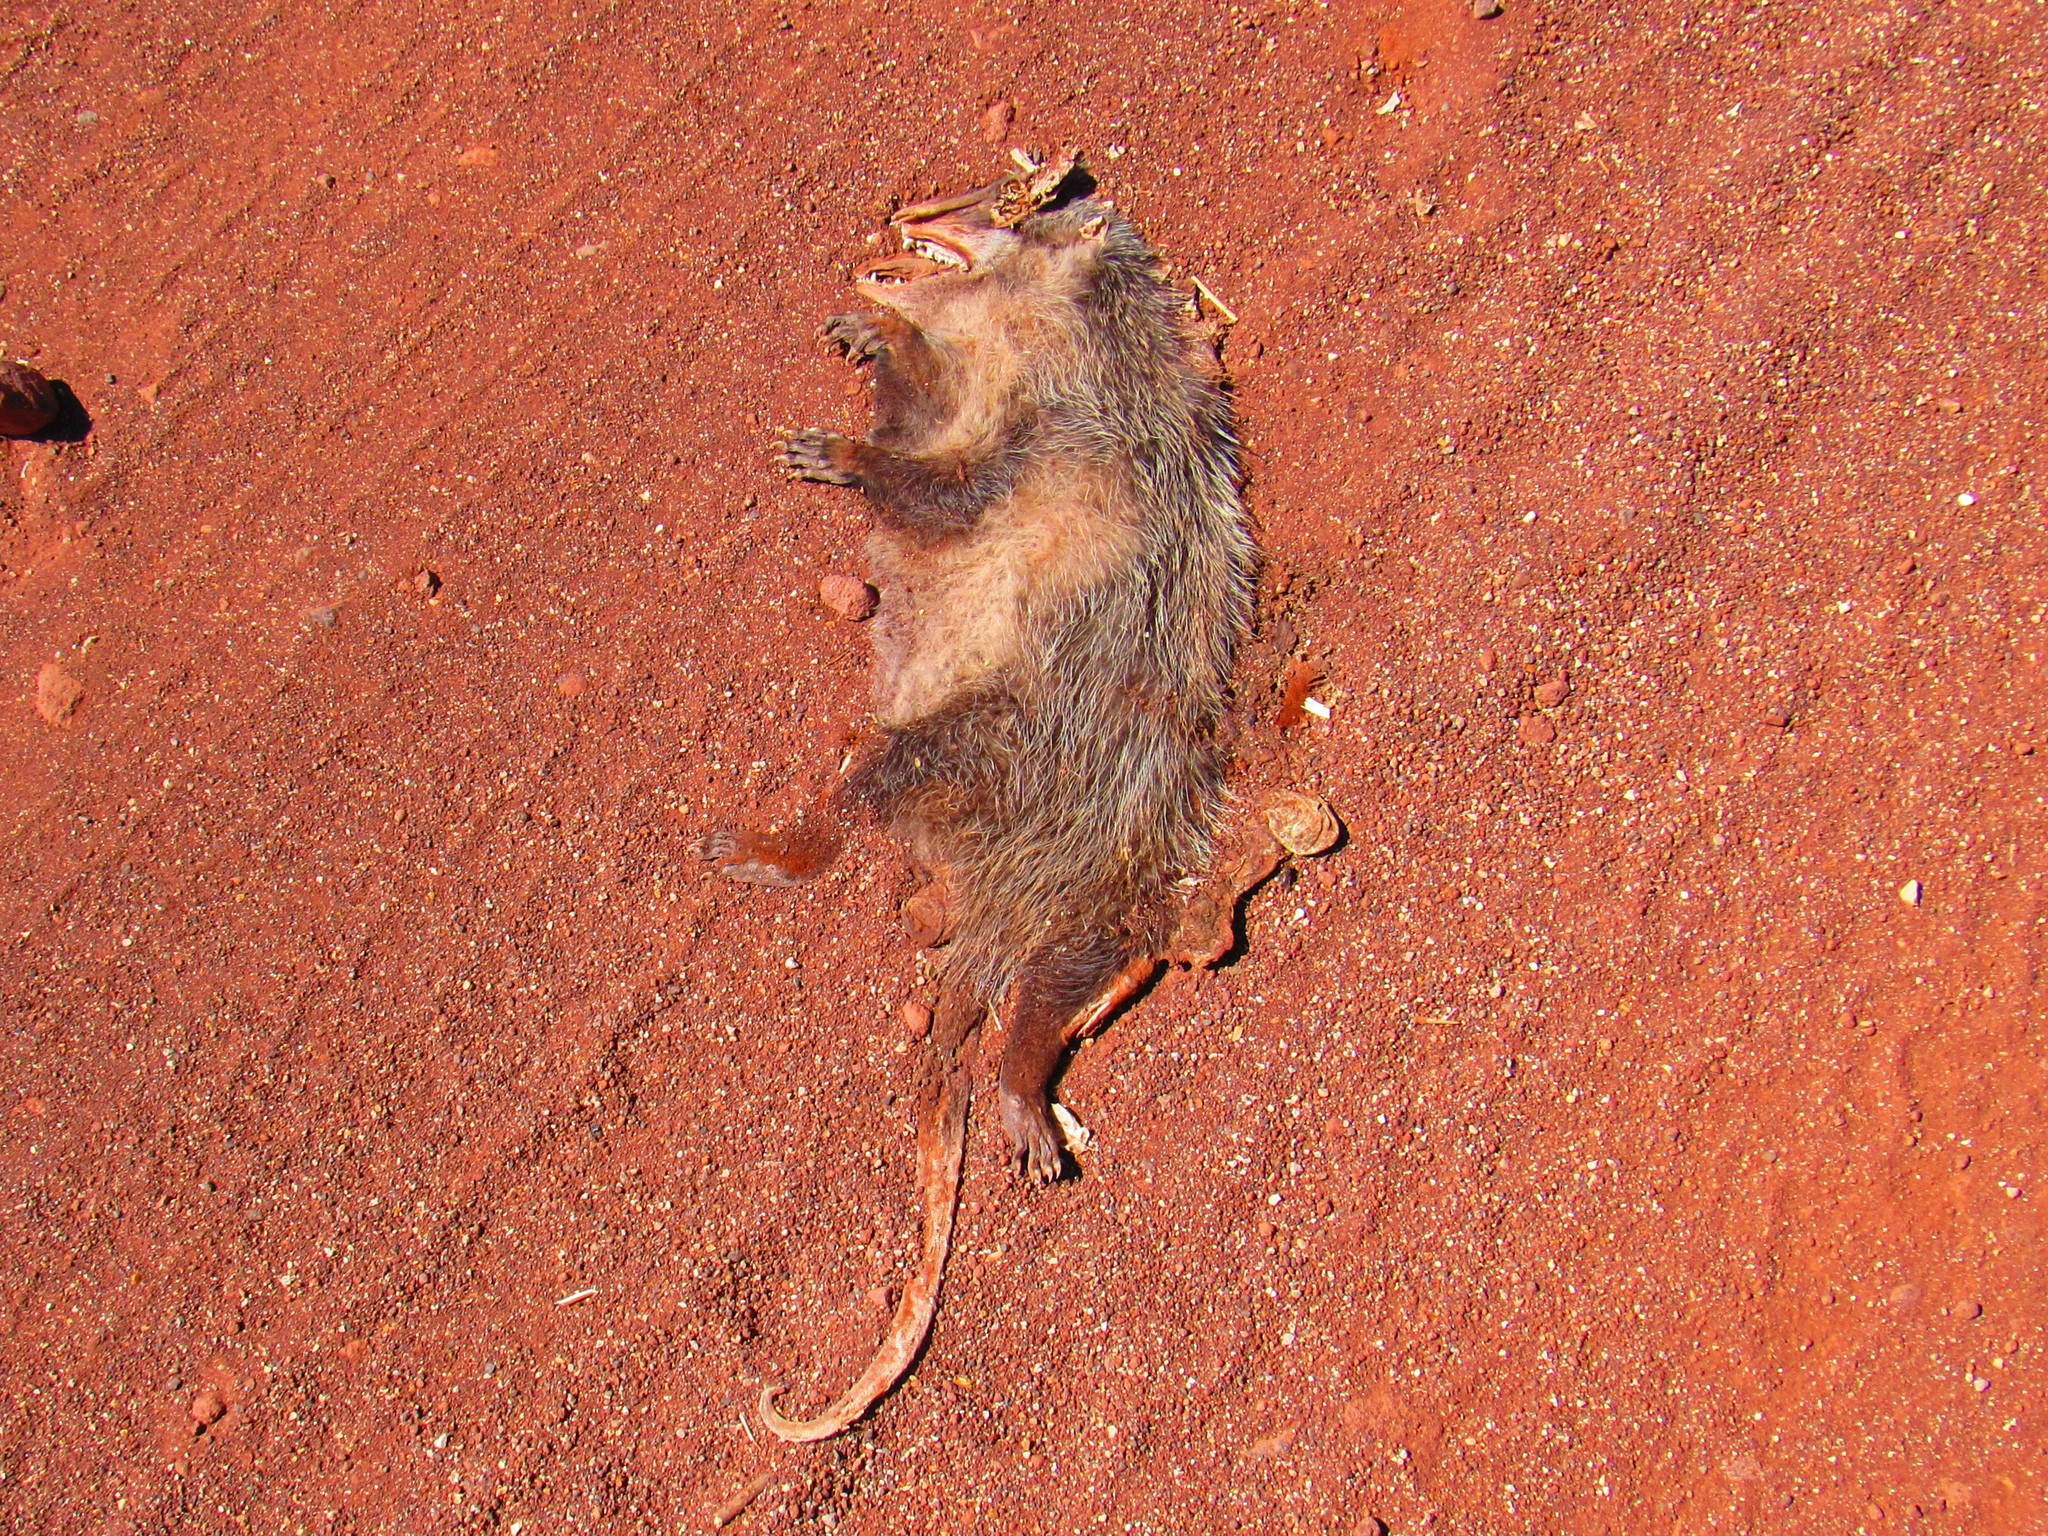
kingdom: Animalia
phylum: Chordata
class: Mammalia
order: Didelphimorphia
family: Didelphidae
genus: Didelphis
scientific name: Didelphis virginiana
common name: Virginia opossum
